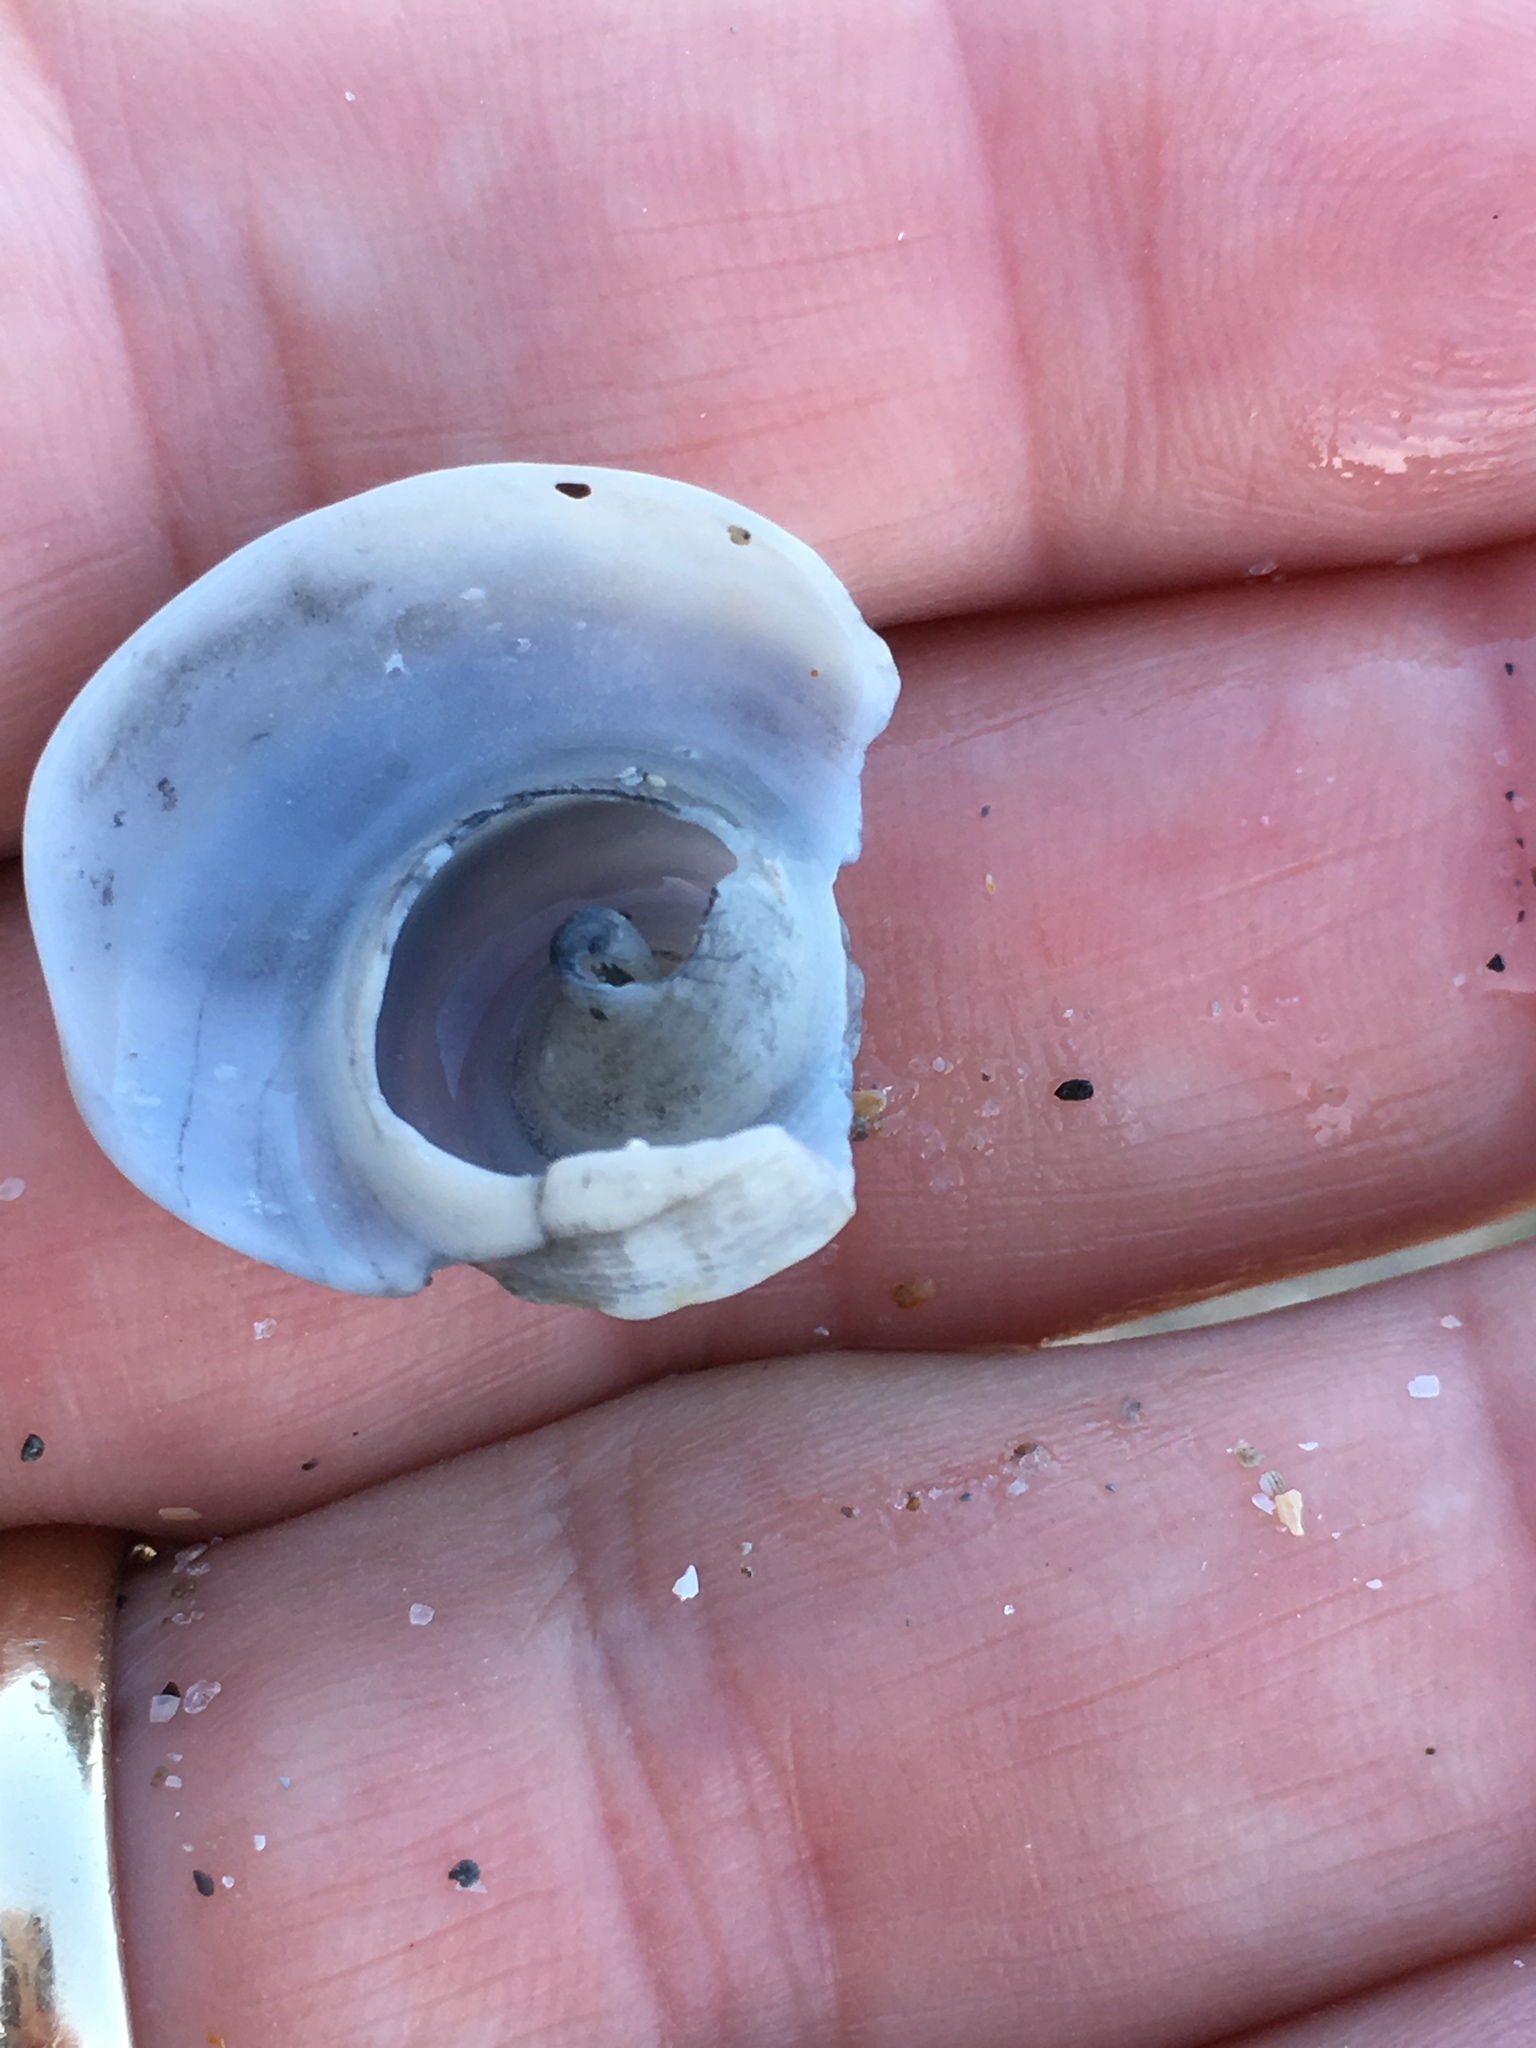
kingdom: Animalia
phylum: Mollusca
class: Gastropoda
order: Neogastropoda
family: Busyconidae
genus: Busycotypus
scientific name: Busycotypus canaliculatus
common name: Channeled whelk
